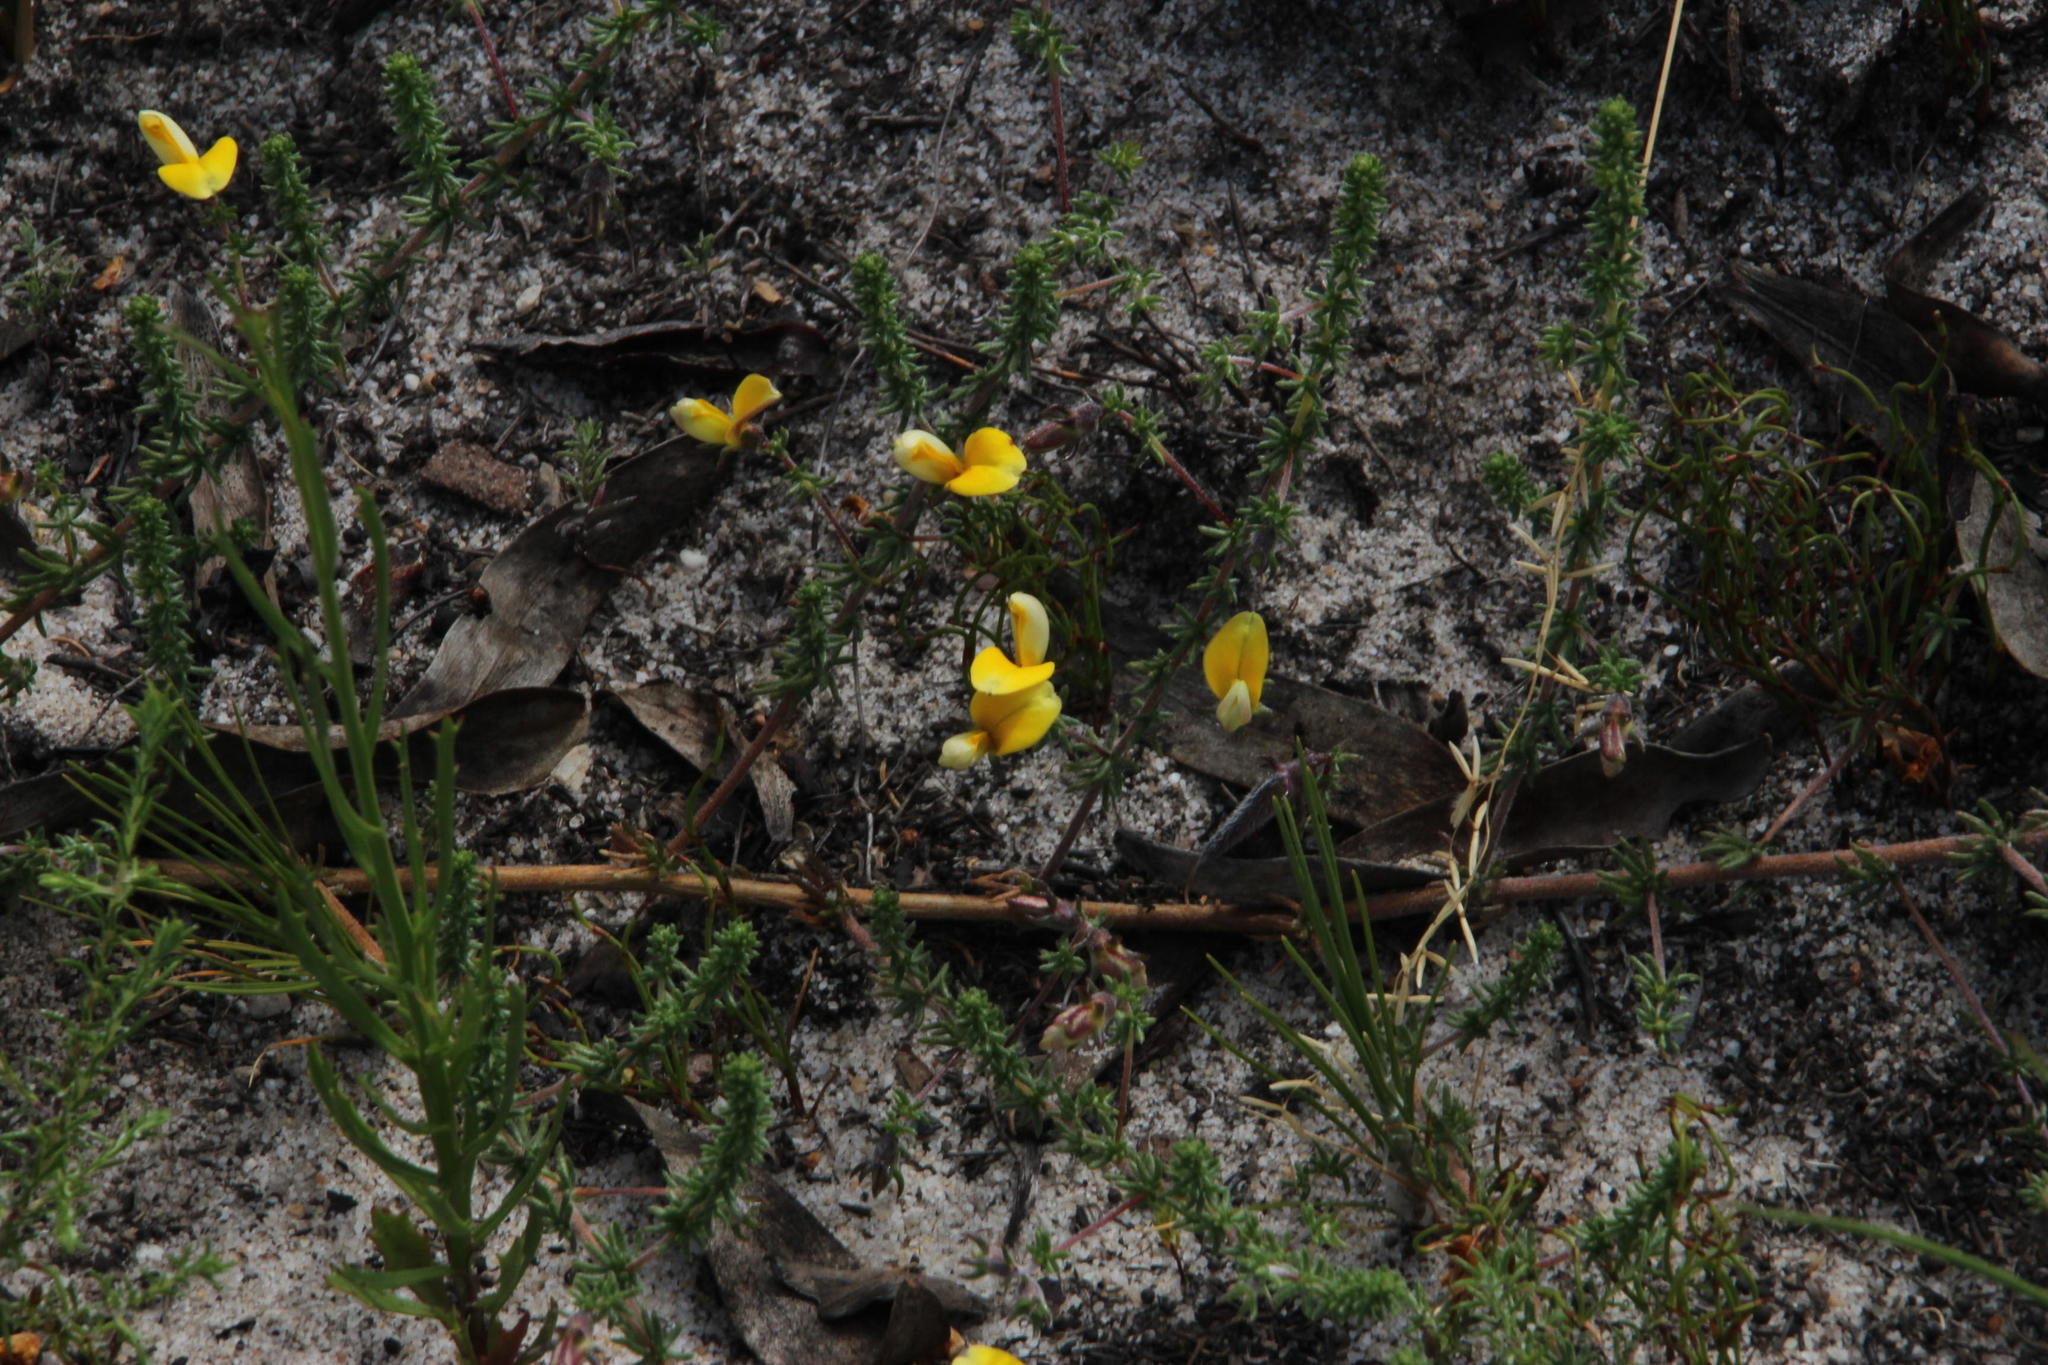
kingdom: Plantae
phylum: Tracheophyta
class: Magnoliopsida
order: Fabales
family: Fabaceae
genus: Aspalathus
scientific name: Aspalathus retroflexa
